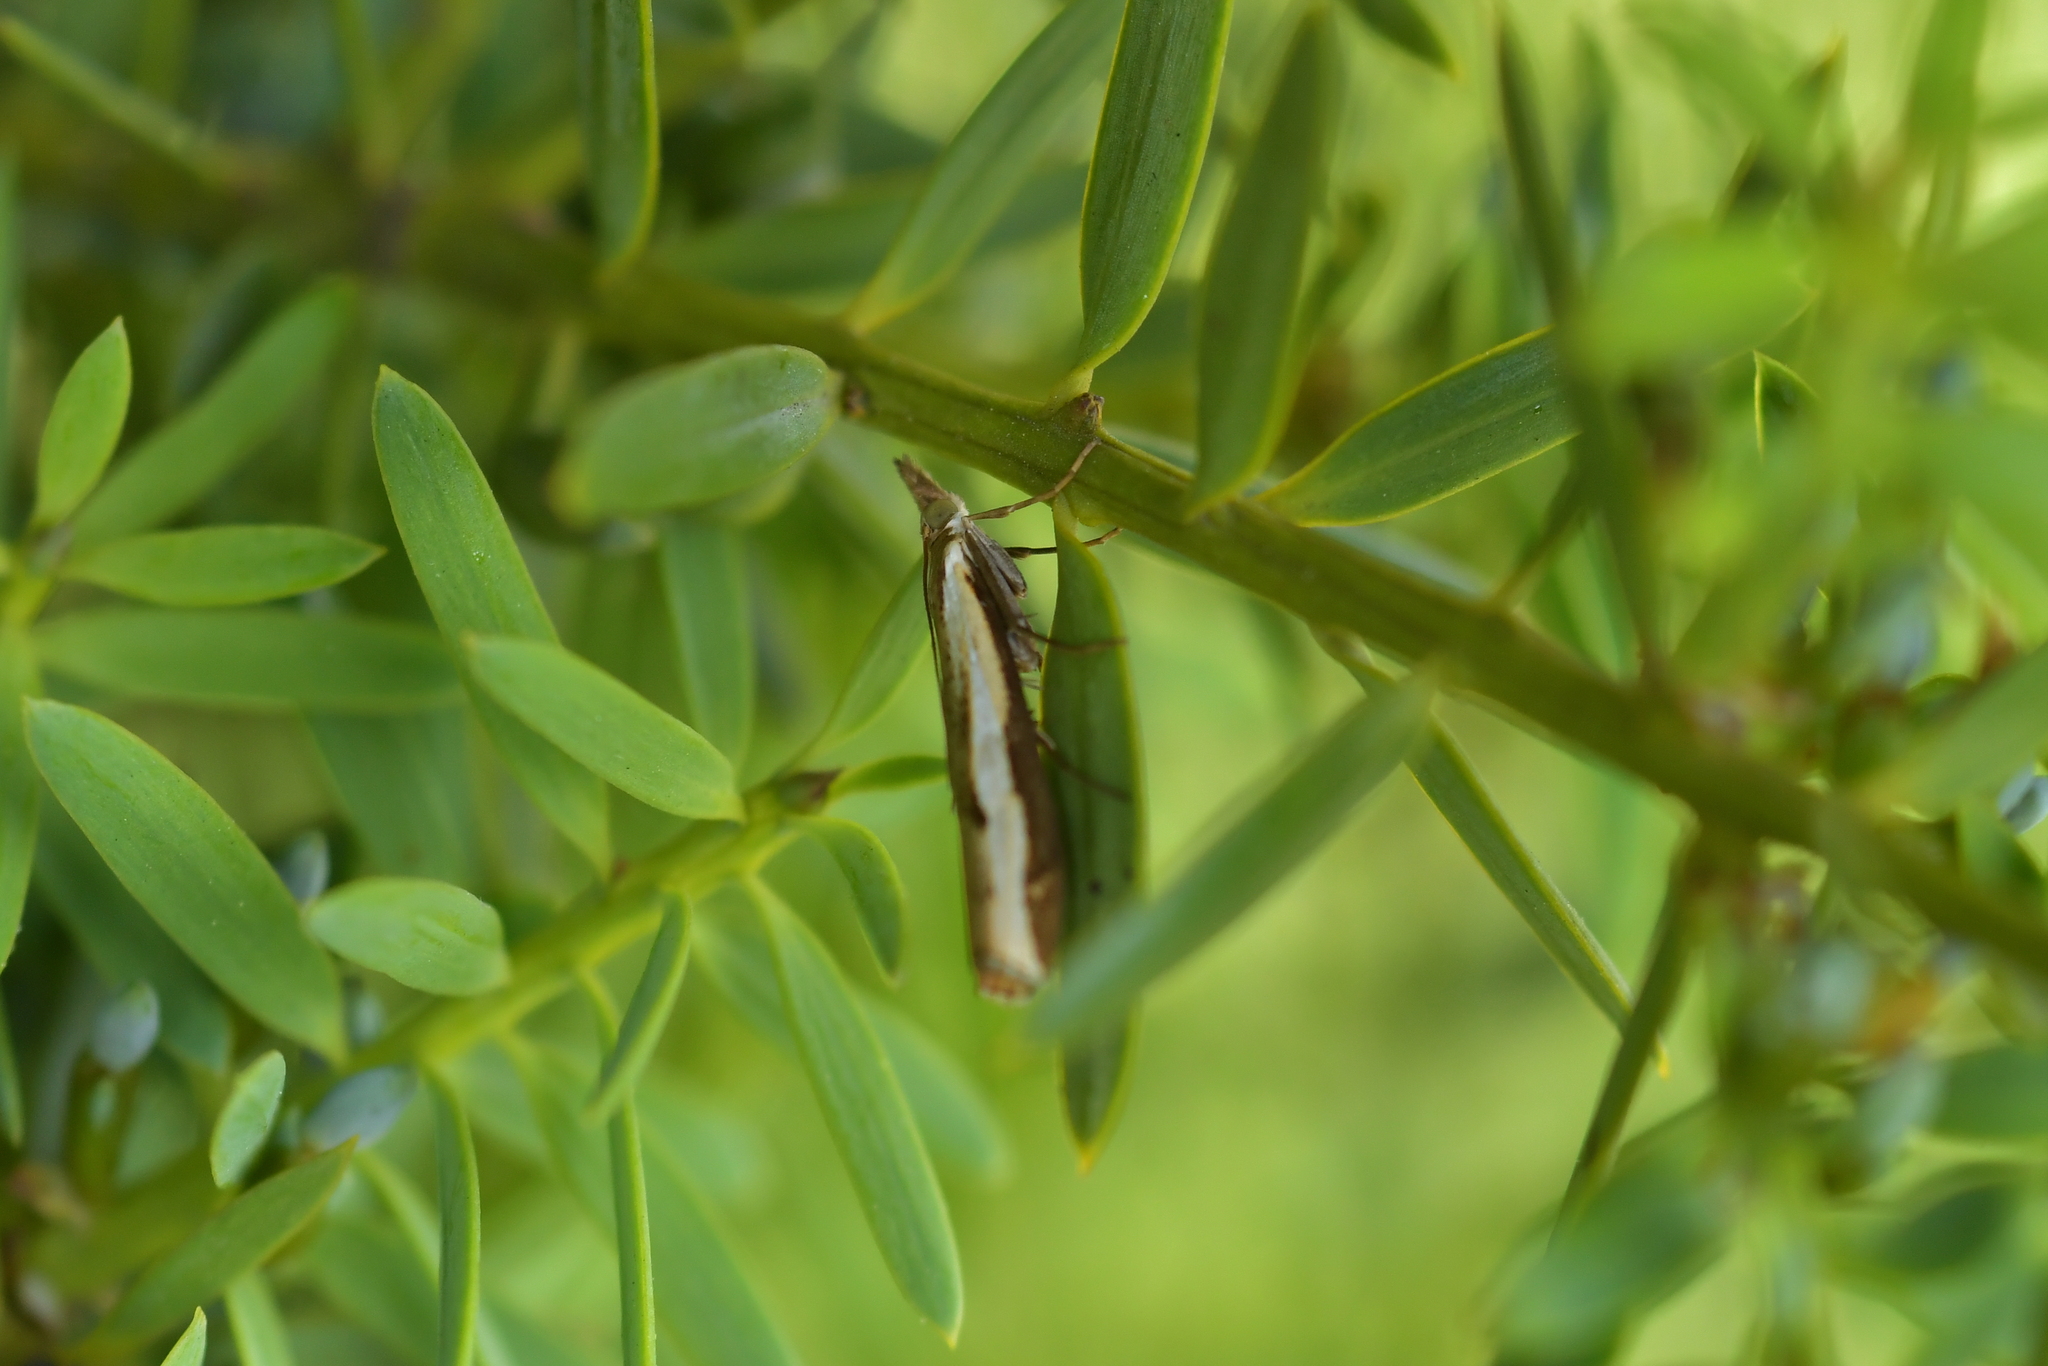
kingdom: Animalia
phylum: Arthropoda
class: Insecta
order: Lepidoptera
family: Crambidae
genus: Orocrambus
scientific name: Orocrambus flexuosellus
